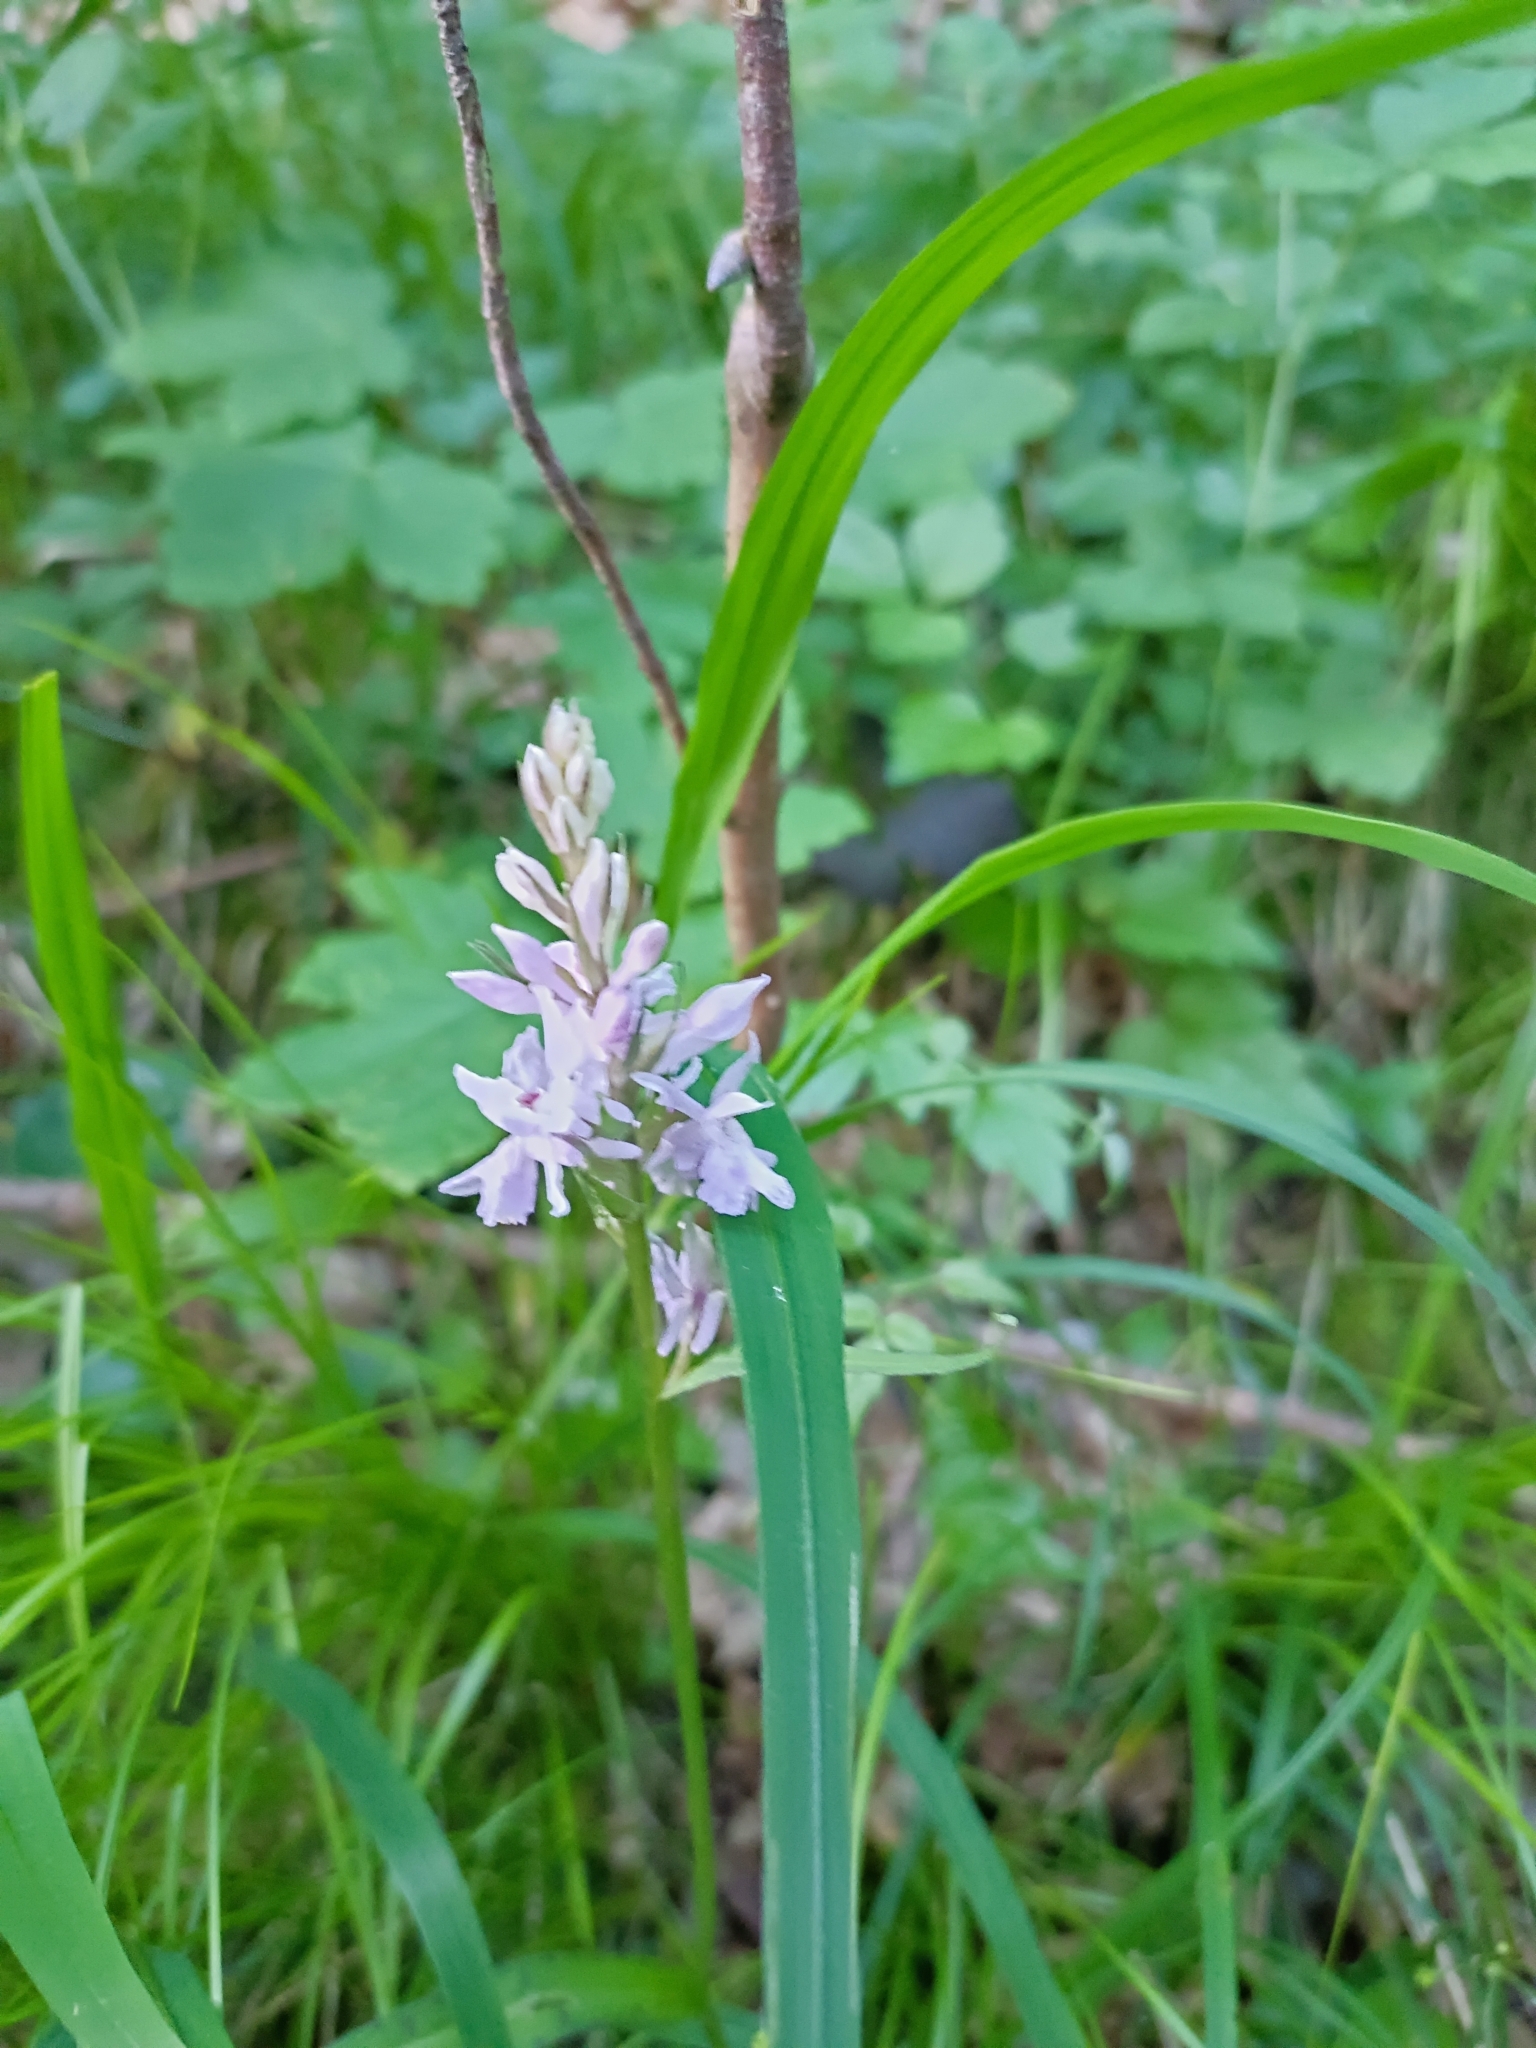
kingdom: Plantae
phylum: Tracheophyta
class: Liliopsida
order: Asparagales
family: Orchidaceae
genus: Dactylorhiza
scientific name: Dactylorhiza maculata
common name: Heath spotted-orchid
